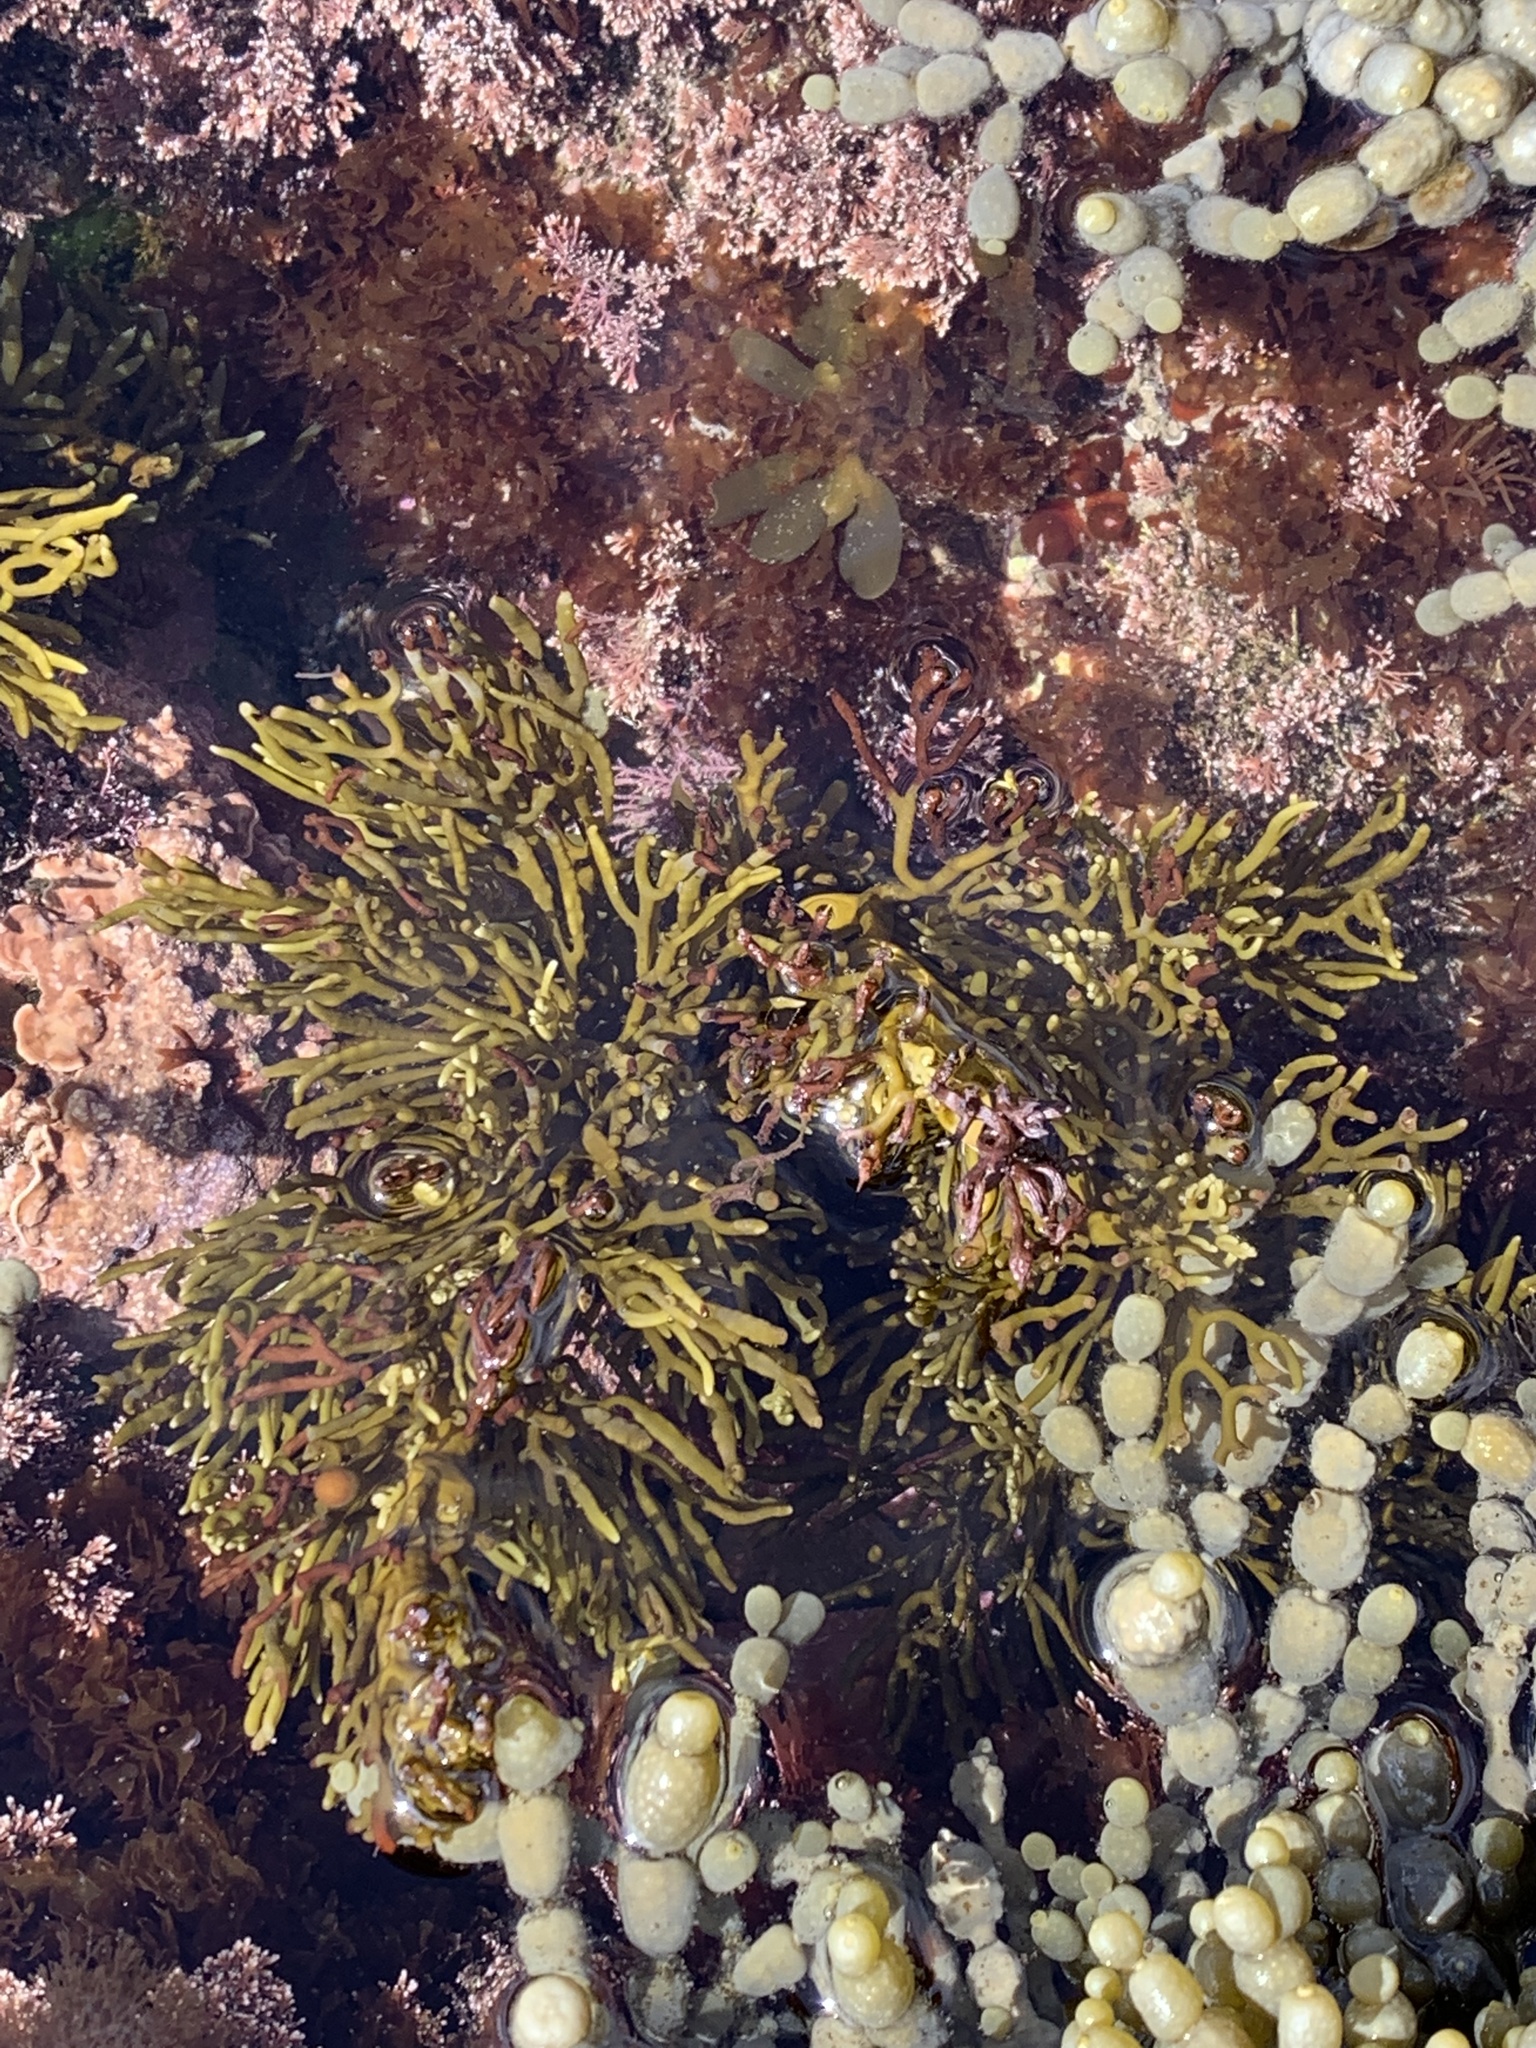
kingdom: Chromista
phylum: Ochrophyta
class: Phaeophyceae
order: Fucales
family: Sargassaceae
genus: Cystophora
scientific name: Cystophora scalaris
